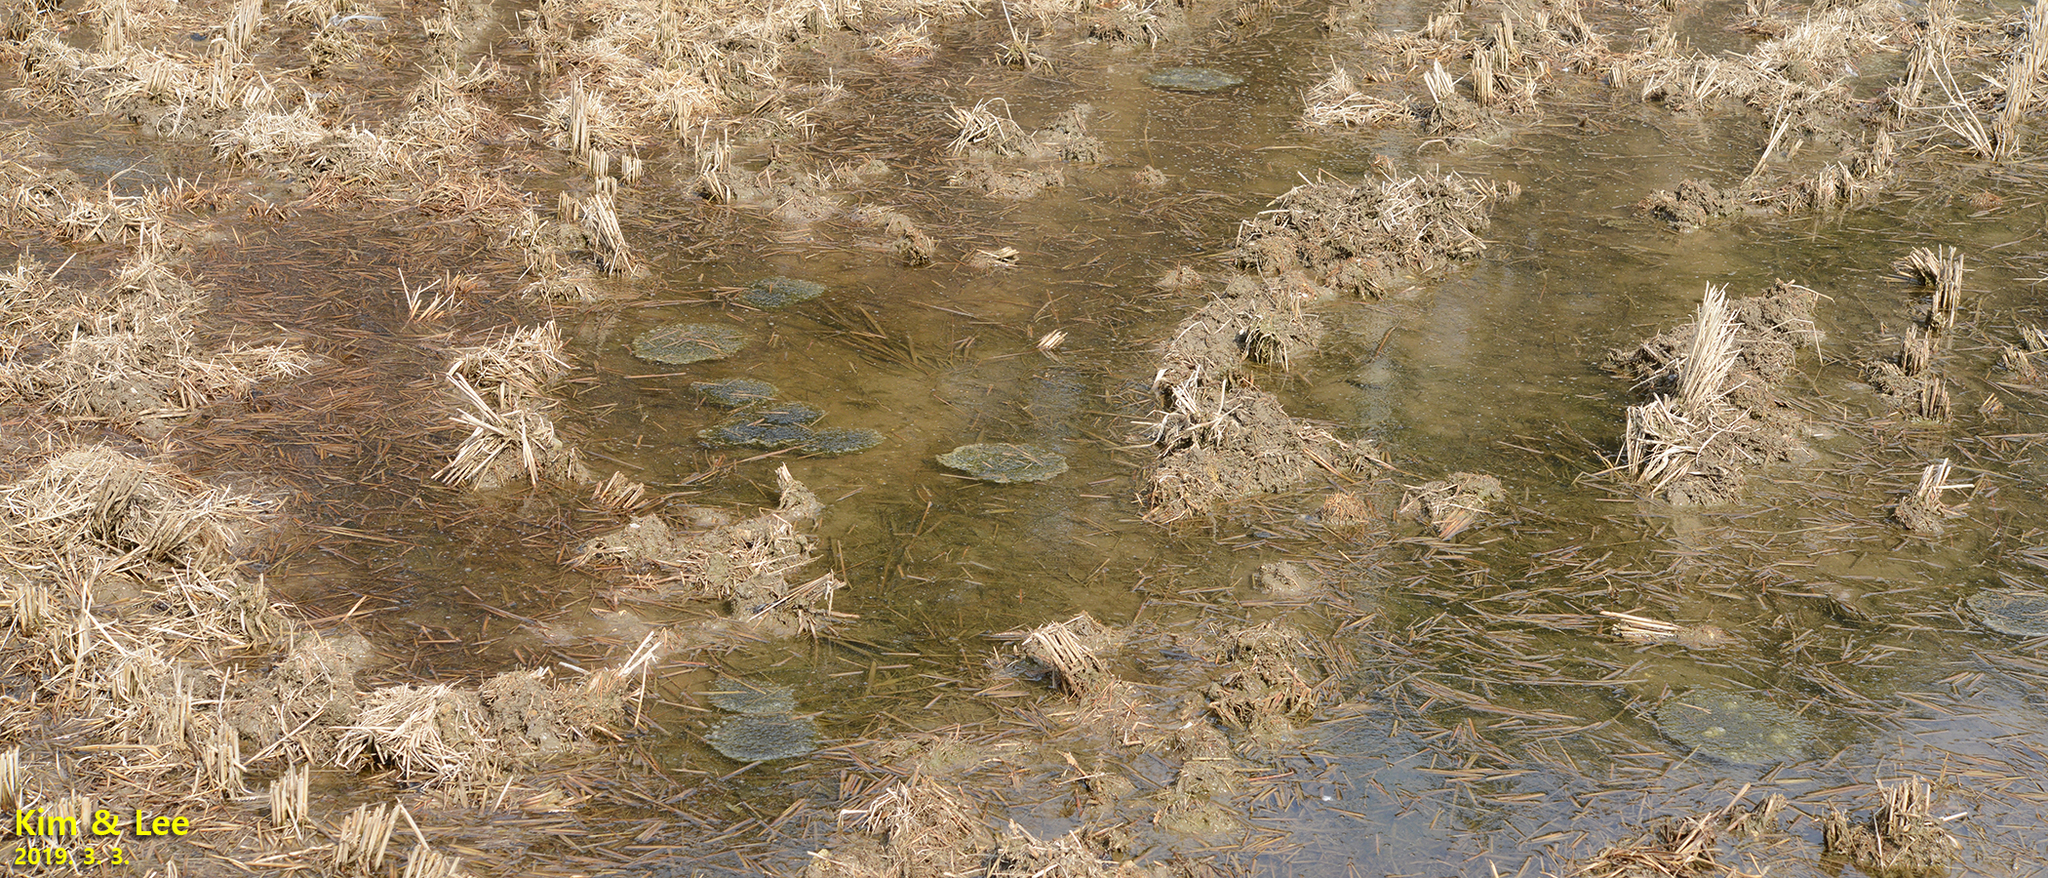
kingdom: Animalia
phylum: Chordata
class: Amphibia
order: Anura
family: Ranidae
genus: Rana
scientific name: Rana uenoi
